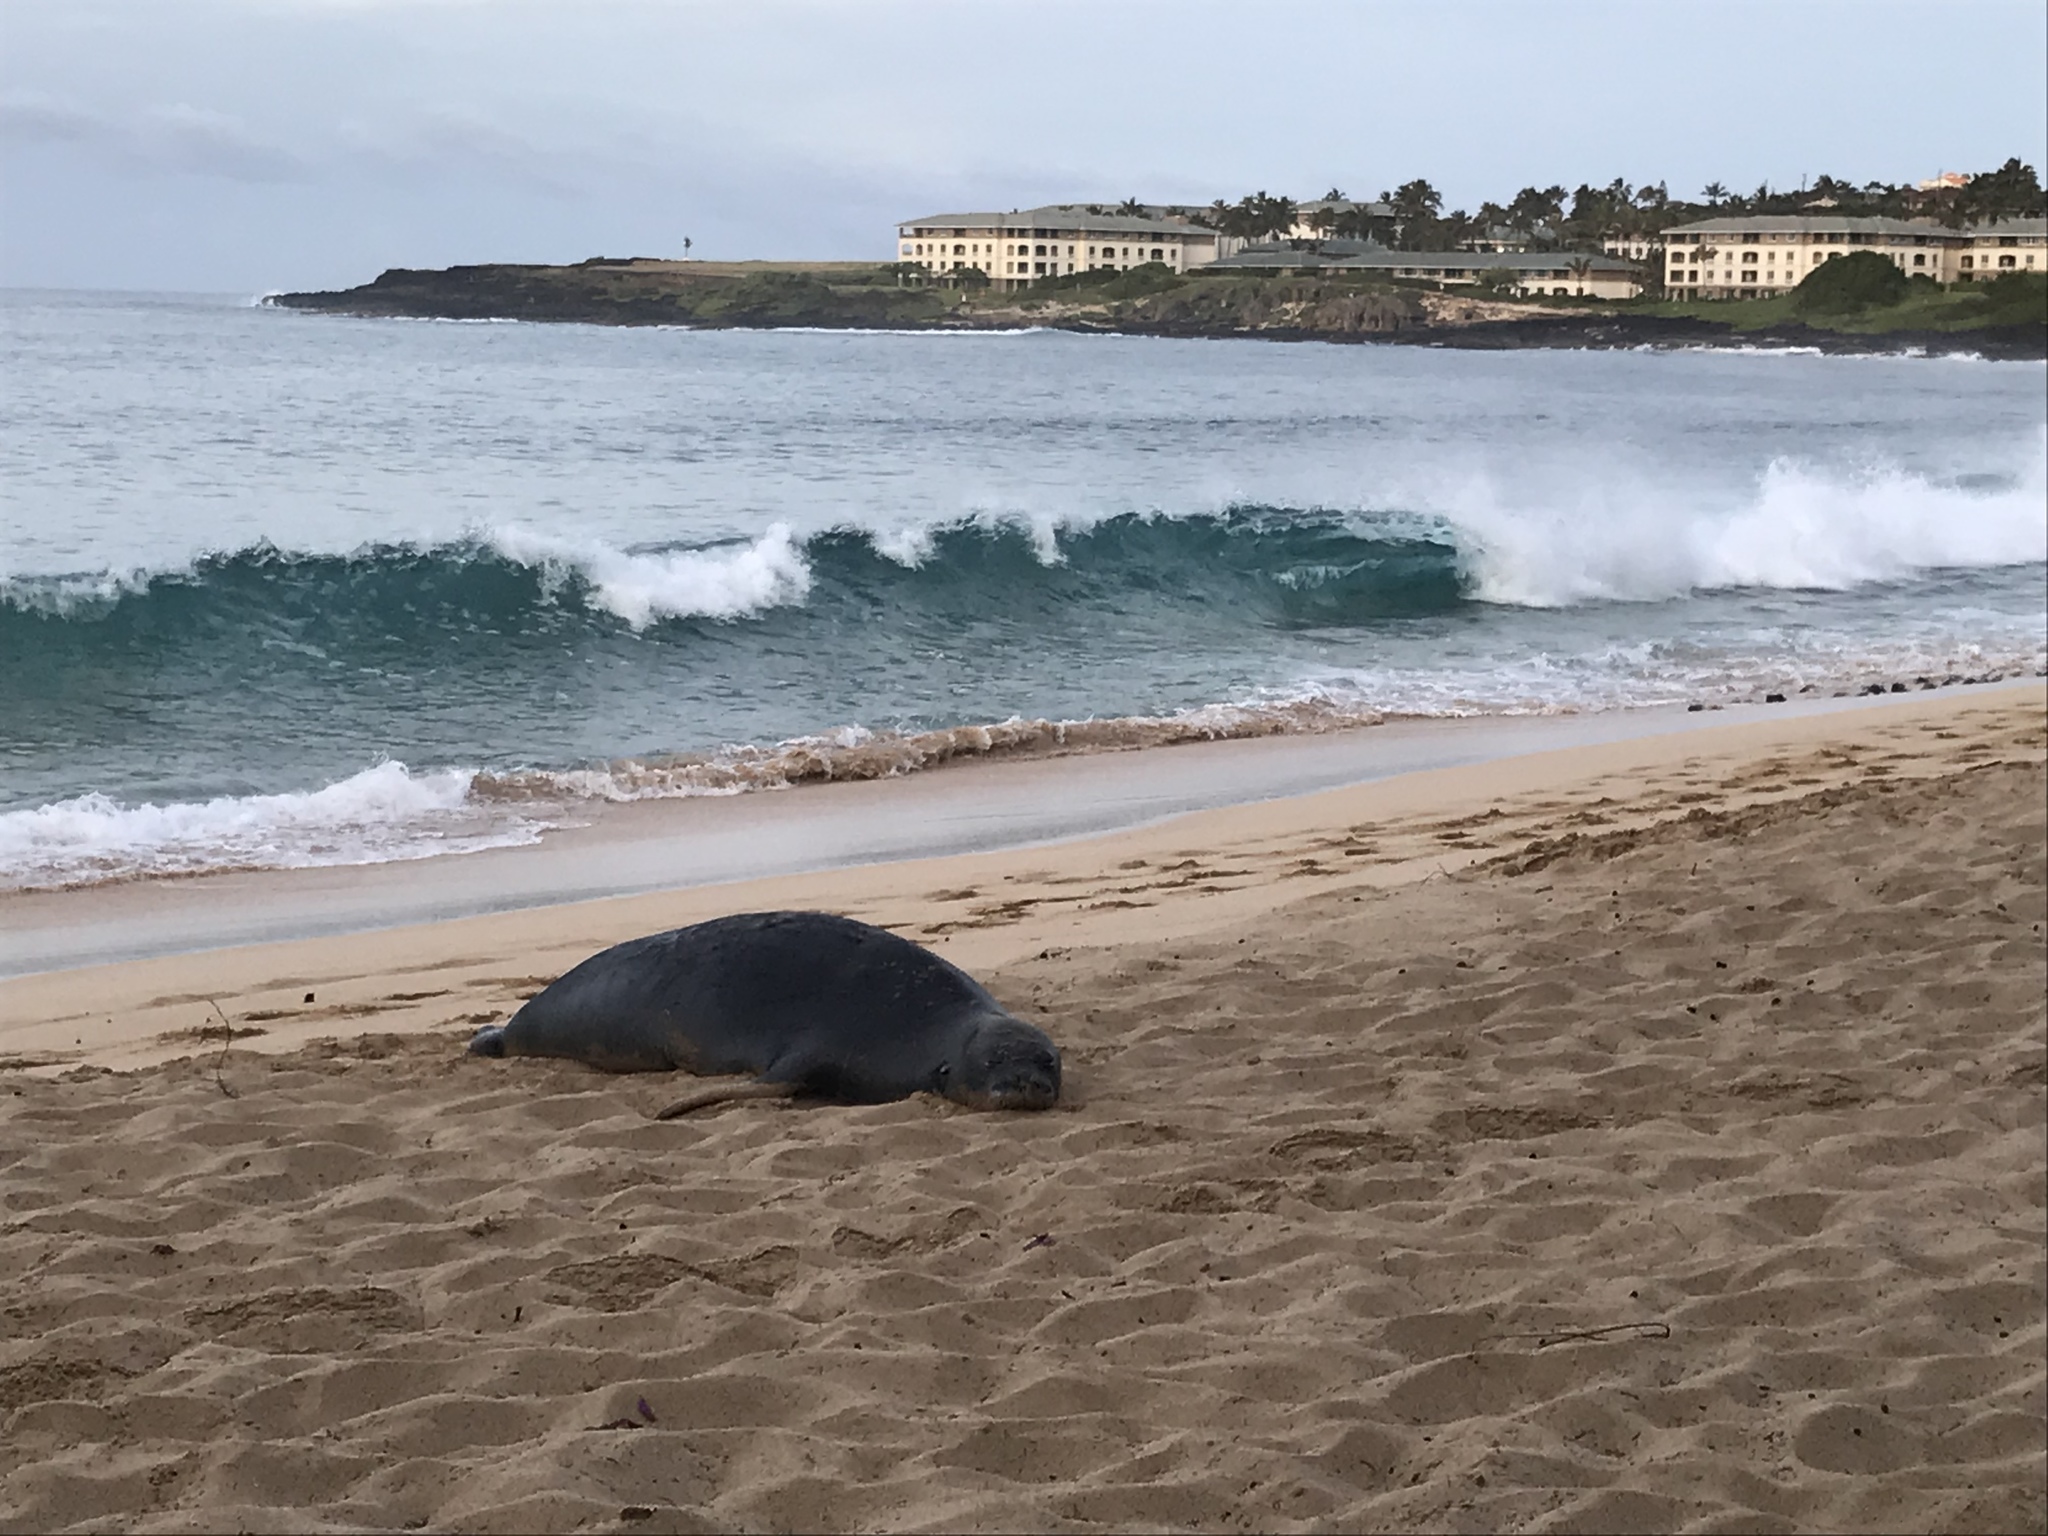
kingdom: Animalia
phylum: Chordata
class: Mammalia
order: Carnivora
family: Phocidae
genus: Neomonachus
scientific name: Neomonachus schauinslandi
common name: Hawaiian monk seal
